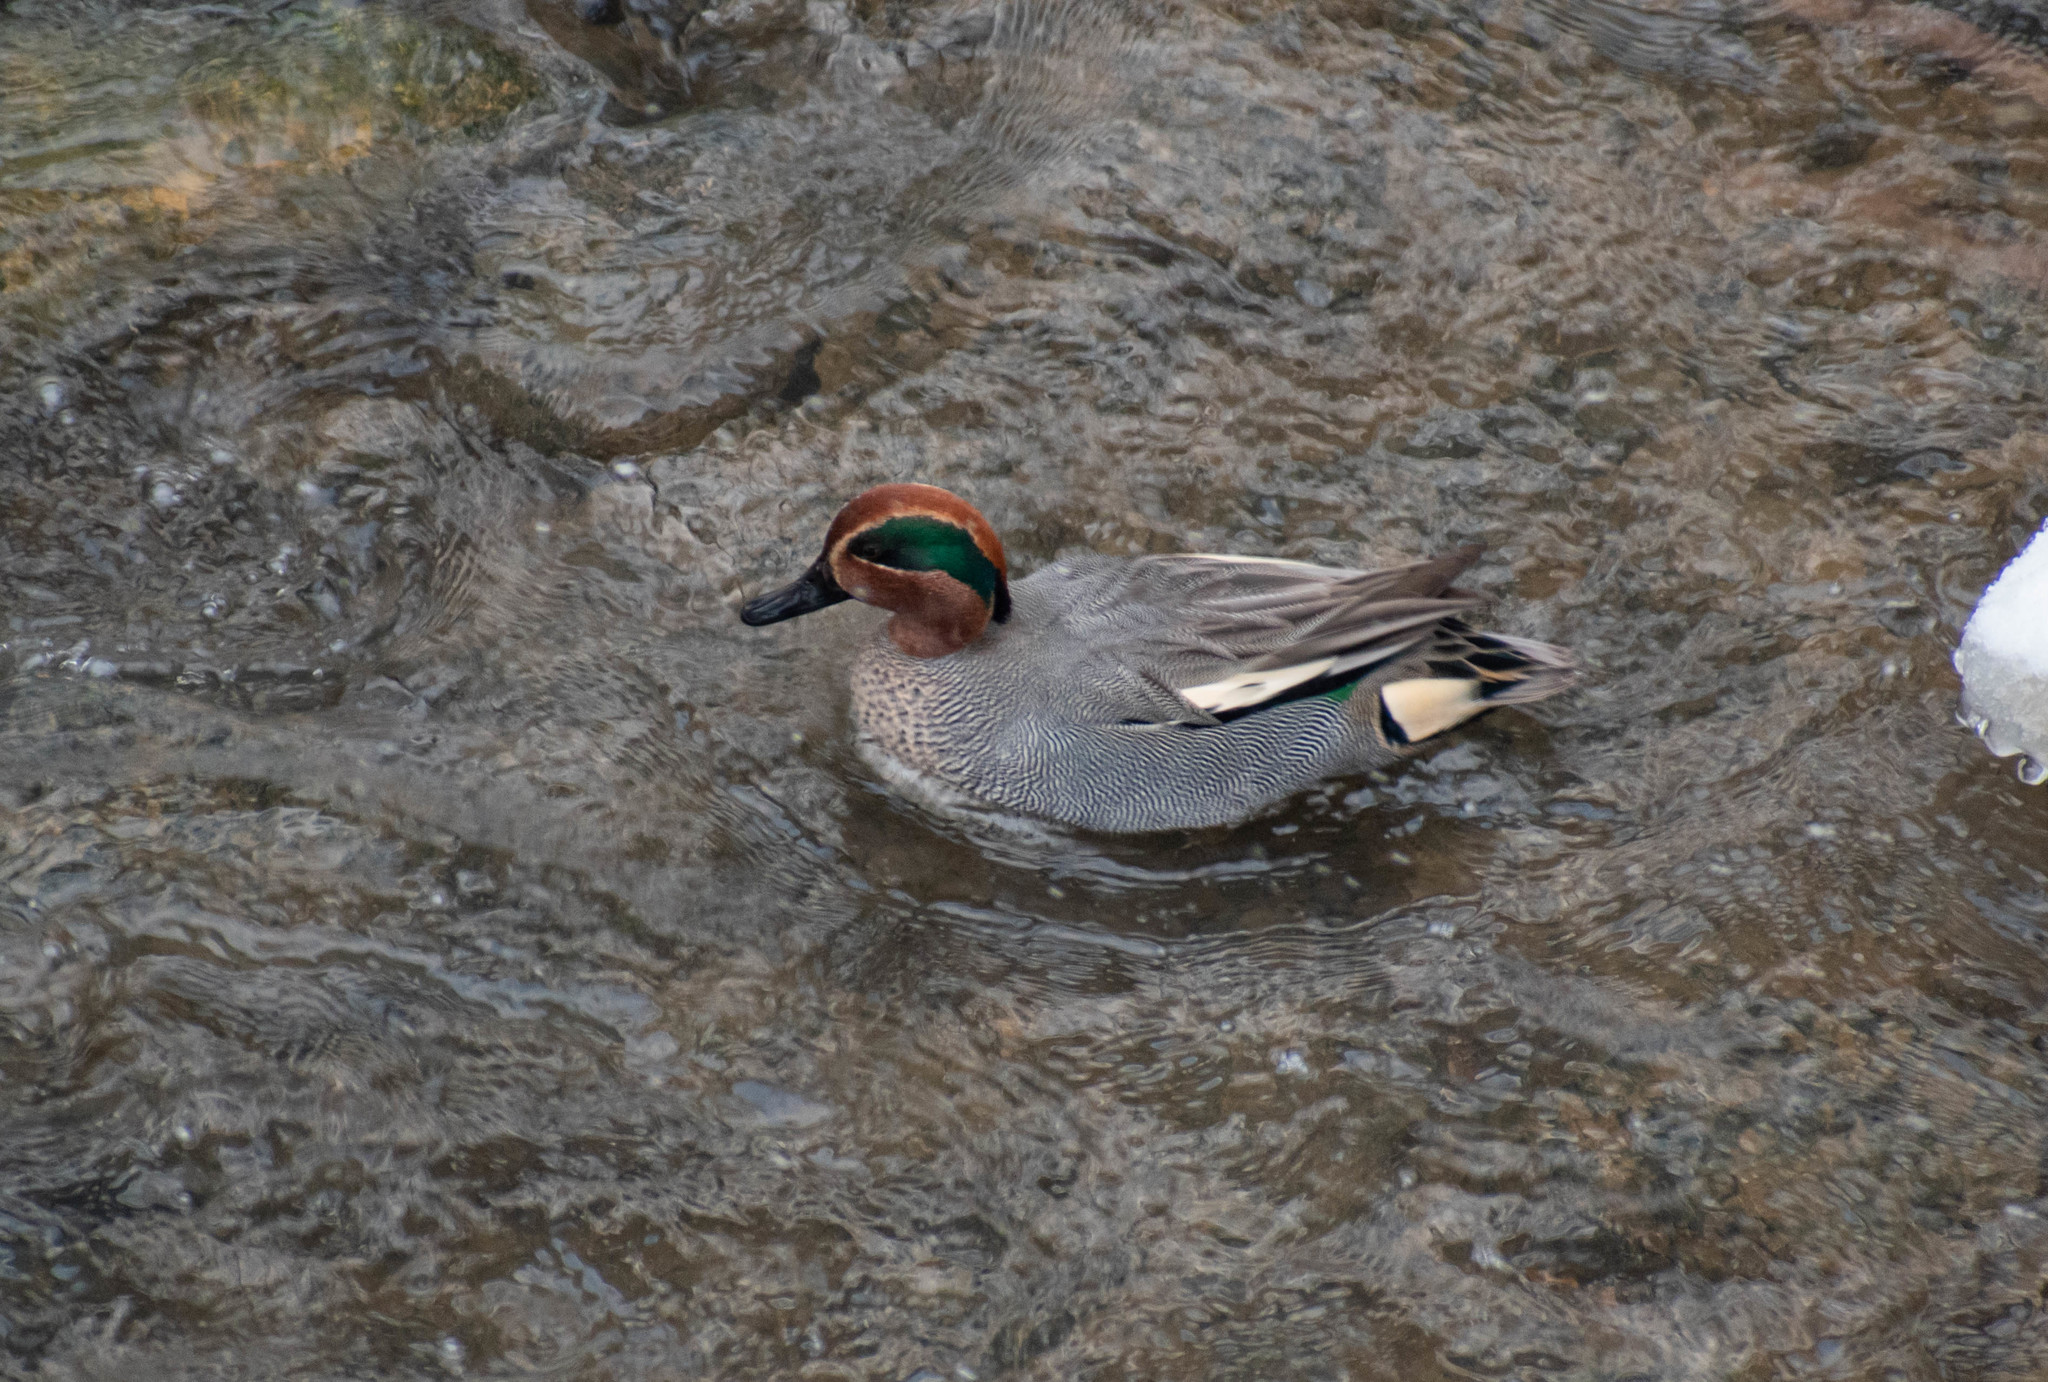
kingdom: Animalia
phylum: Chordata
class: Aves
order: Anseriformes
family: Anatidae
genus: Anas
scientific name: Anas crecca
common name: Eurasian teal
